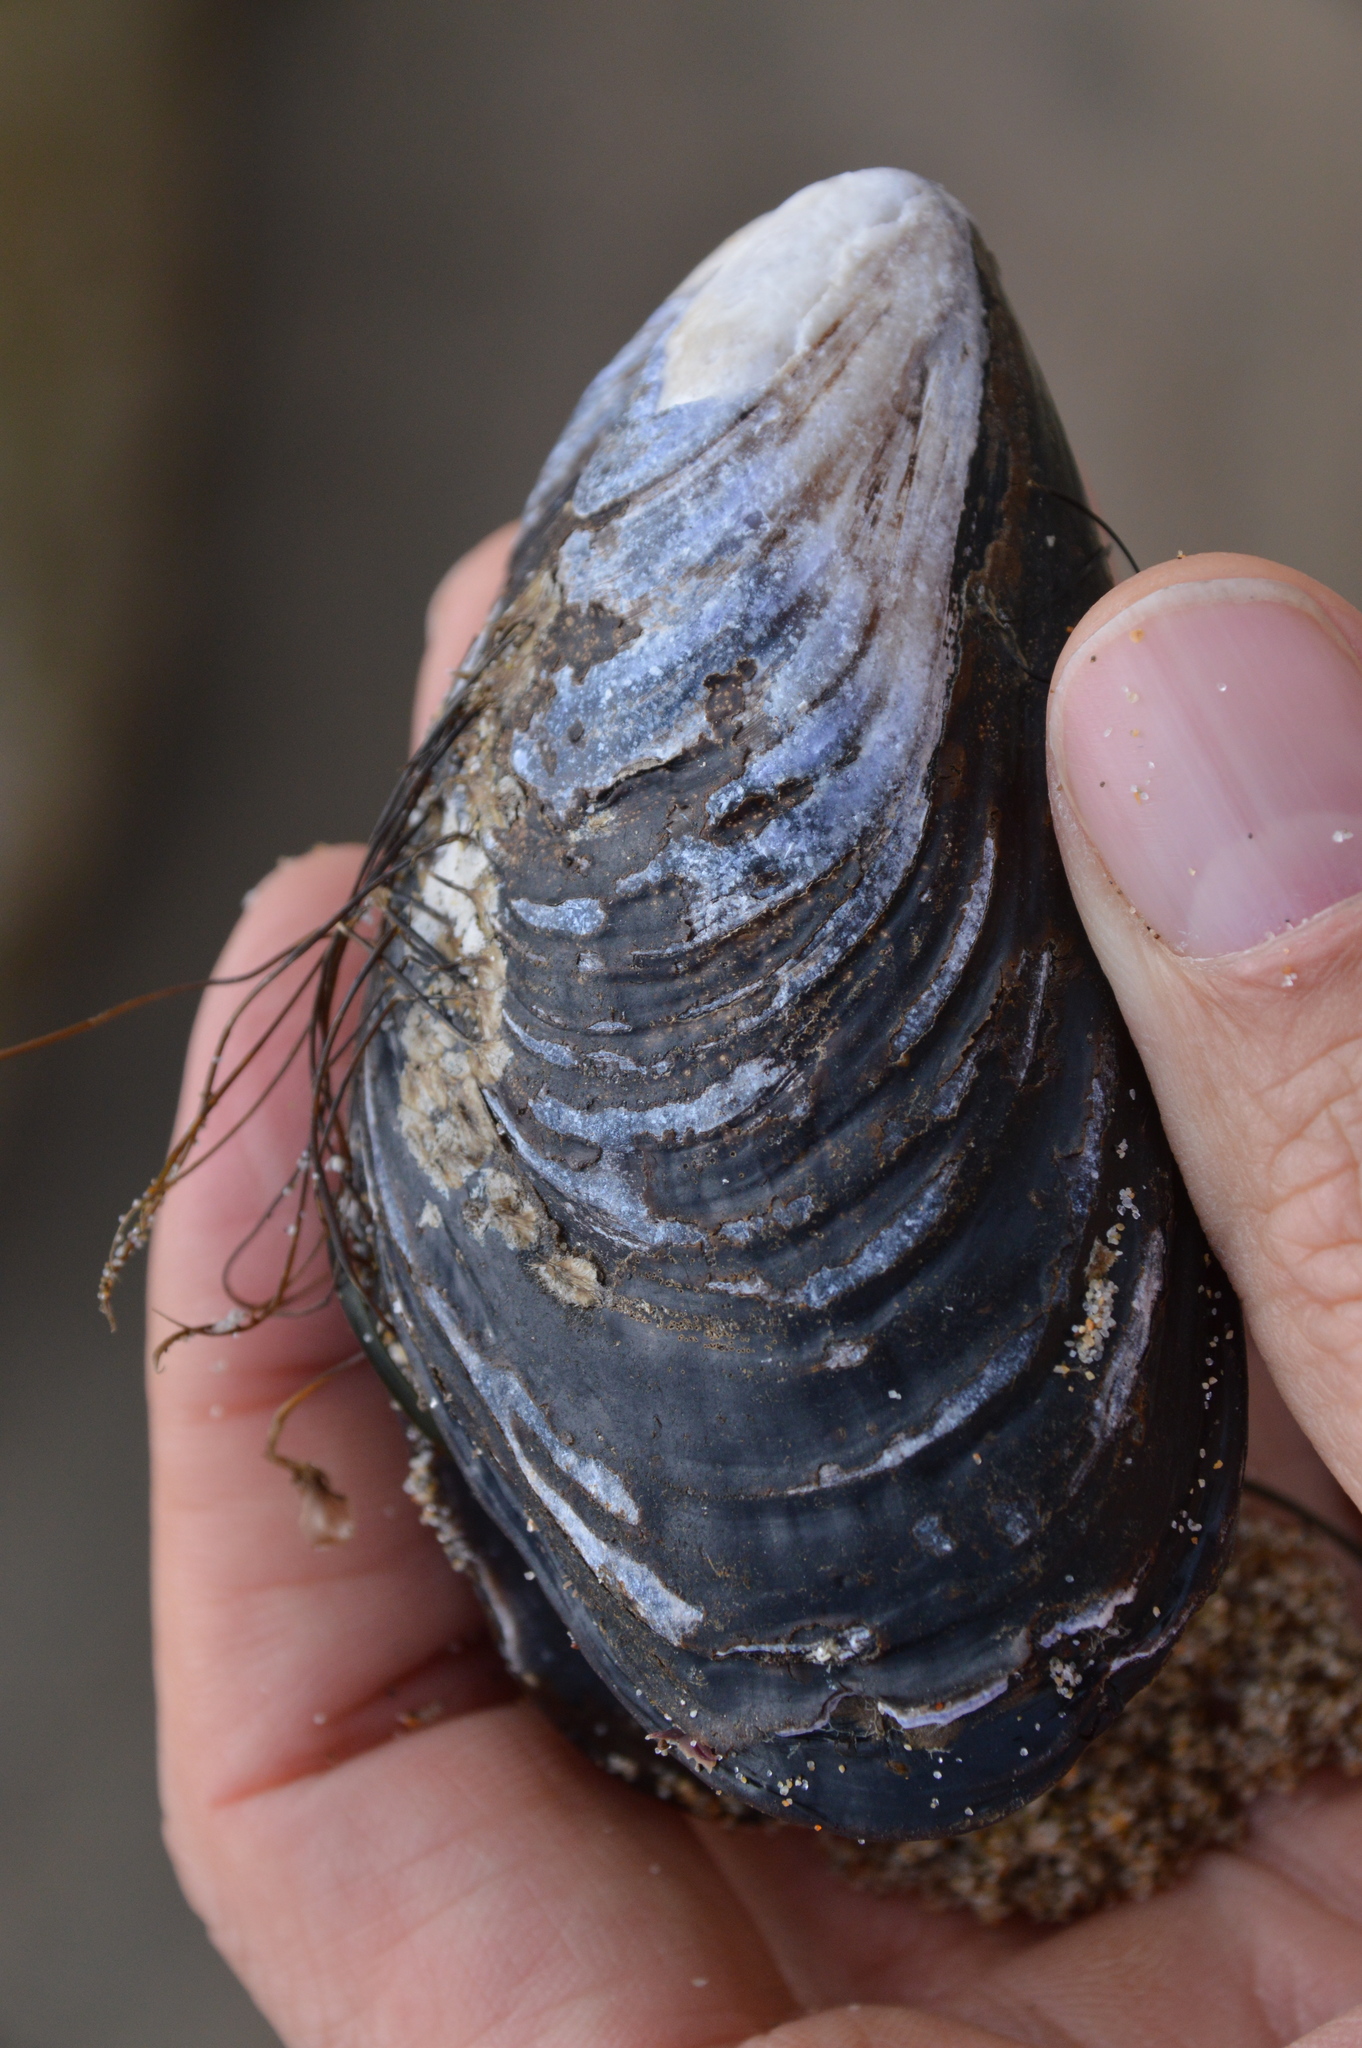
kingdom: Animalia
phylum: Mollusca
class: Bivalvia
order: Mytilida
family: Mytilidae
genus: Mytilus
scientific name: Mytilus californianus
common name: California mussel
